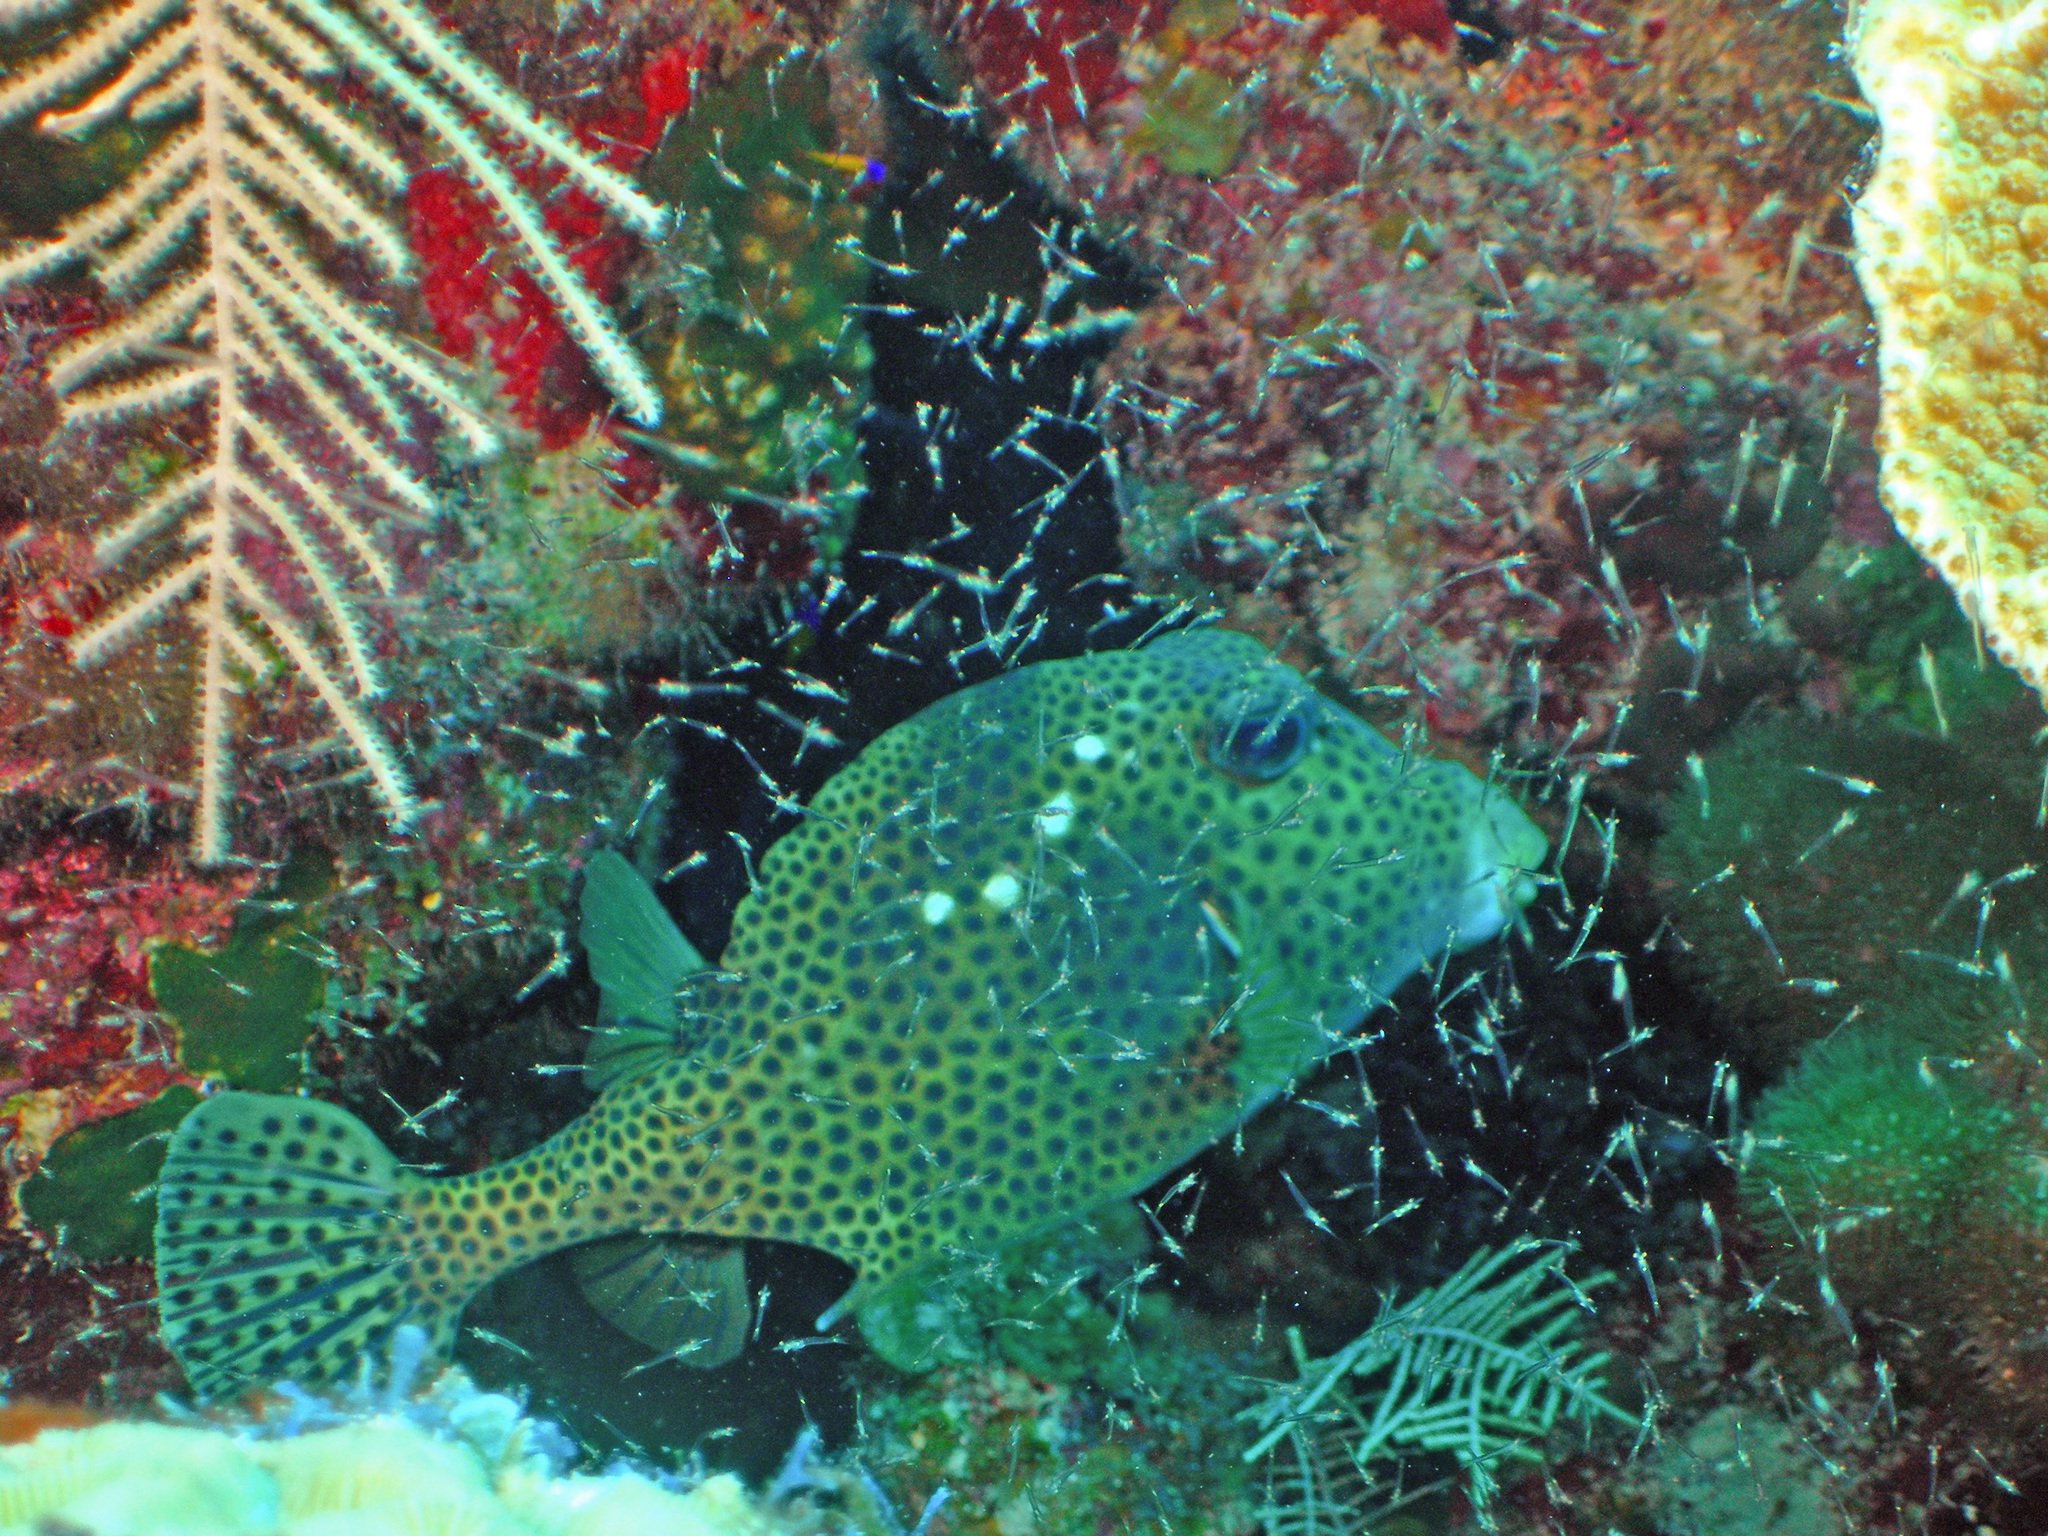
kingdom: Animalia
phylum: Chordata
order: Tetraodontiformes
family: Ostraciidae
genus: Lactophrys
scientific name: Lactophrys bicaudalis
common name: Spotted trunkfish
